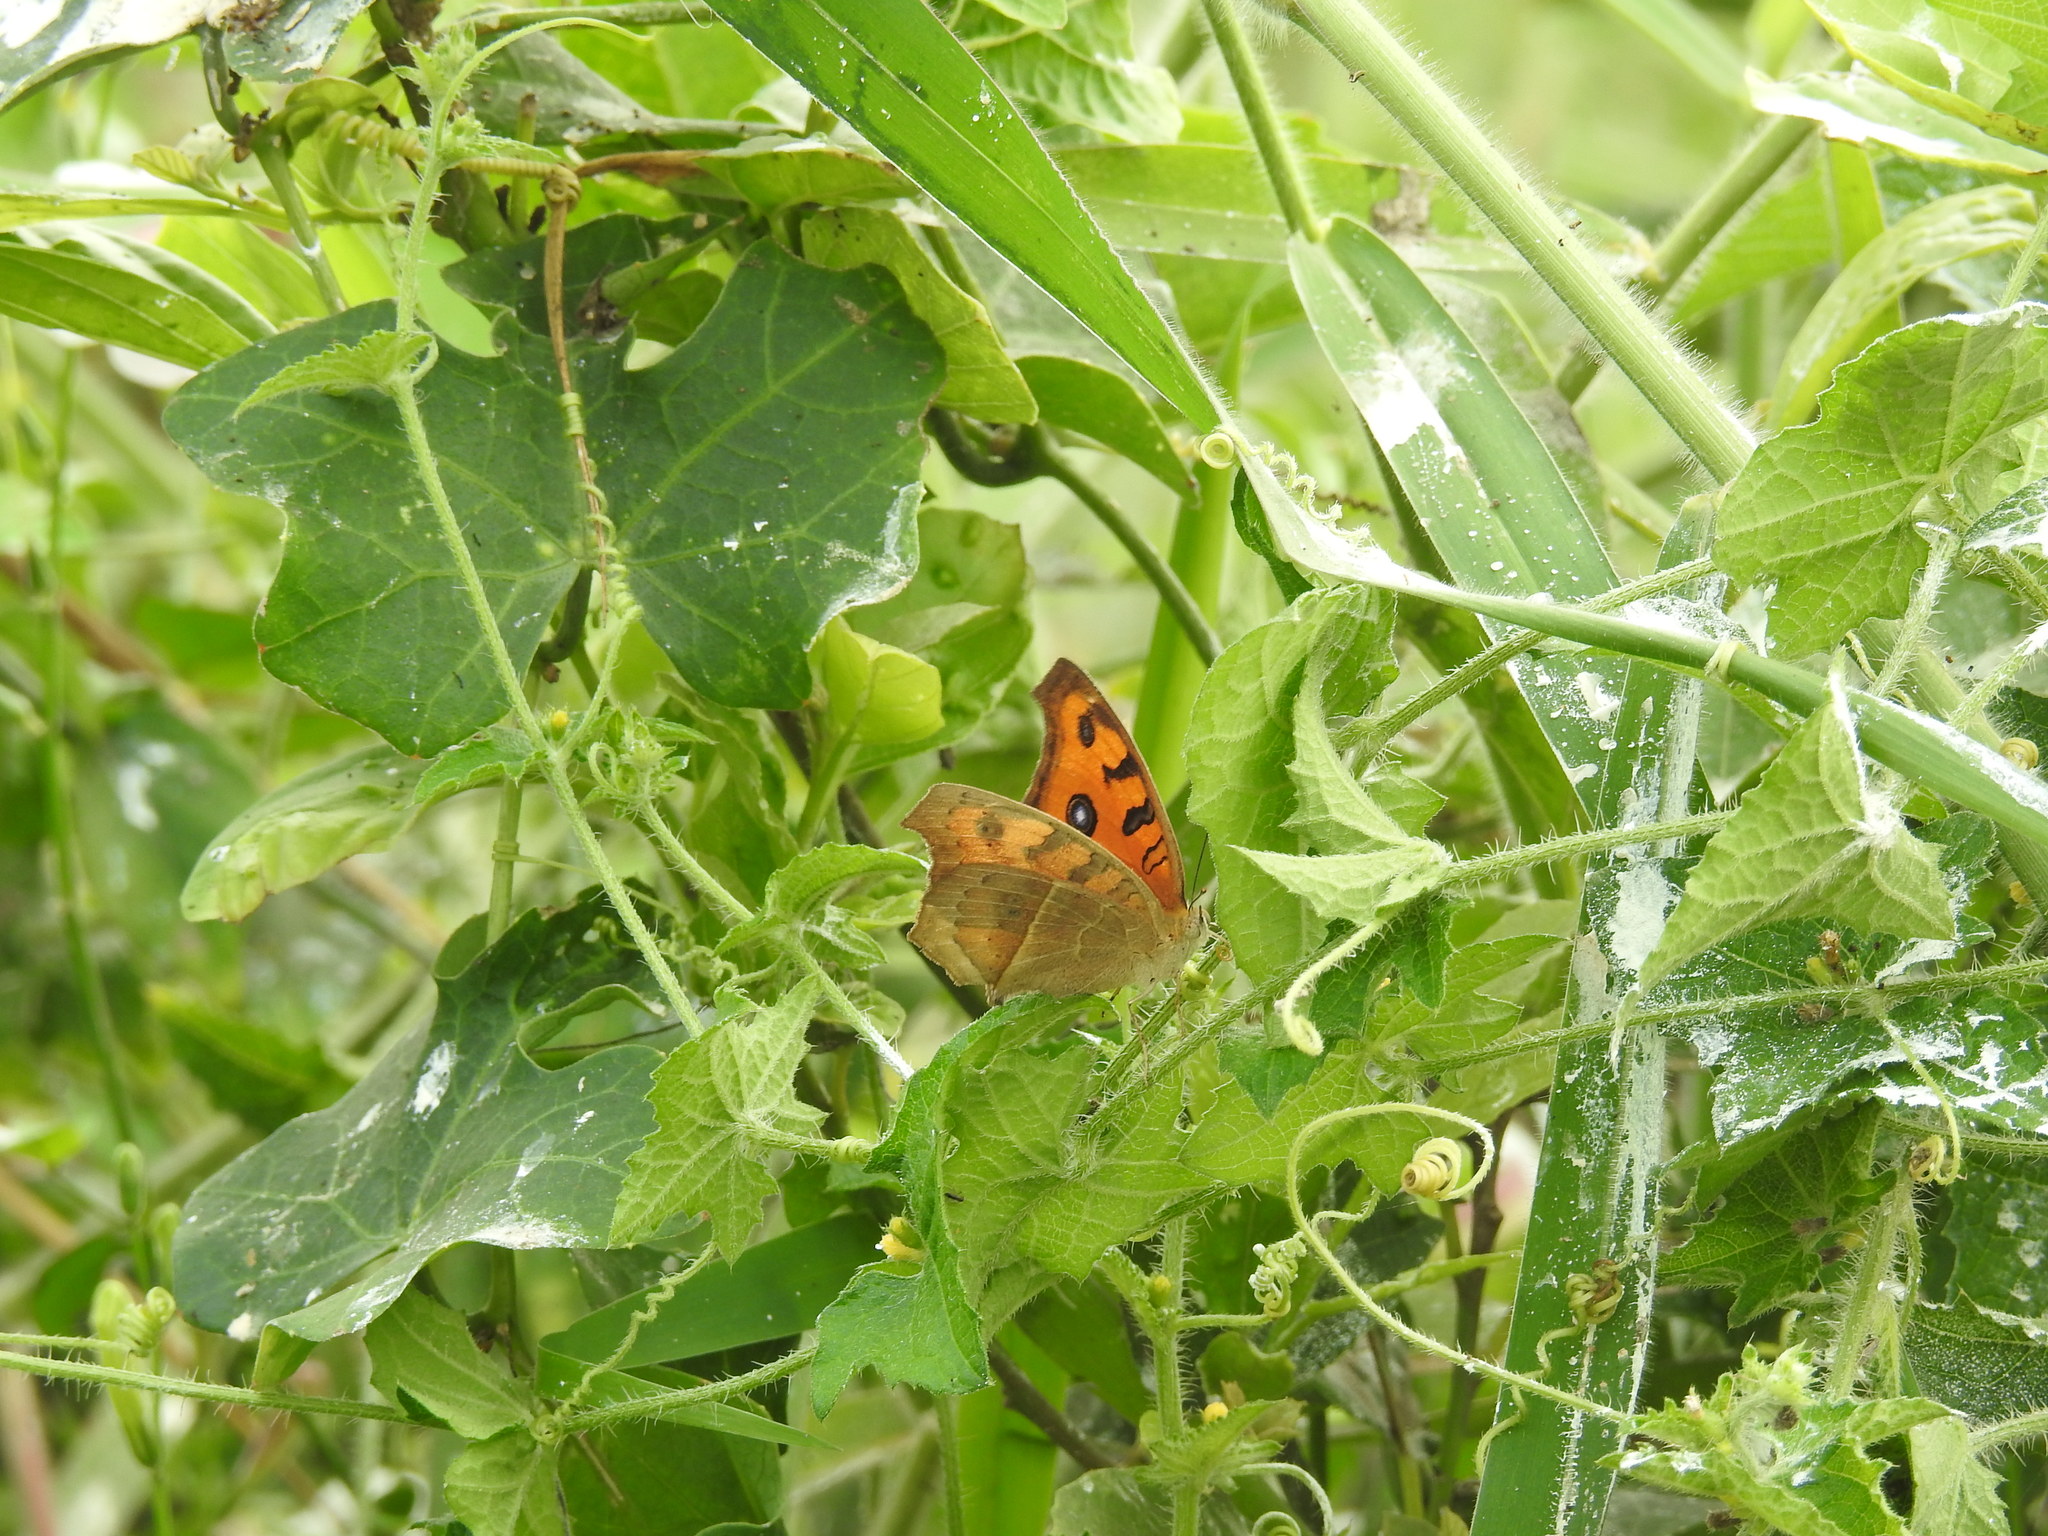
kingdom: Animalia
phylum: Arthropoda
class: Insecta
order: Lepidoptera
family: Nymphalidae
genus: Junonia
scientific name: Junonia almana
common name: Peacock pansy
